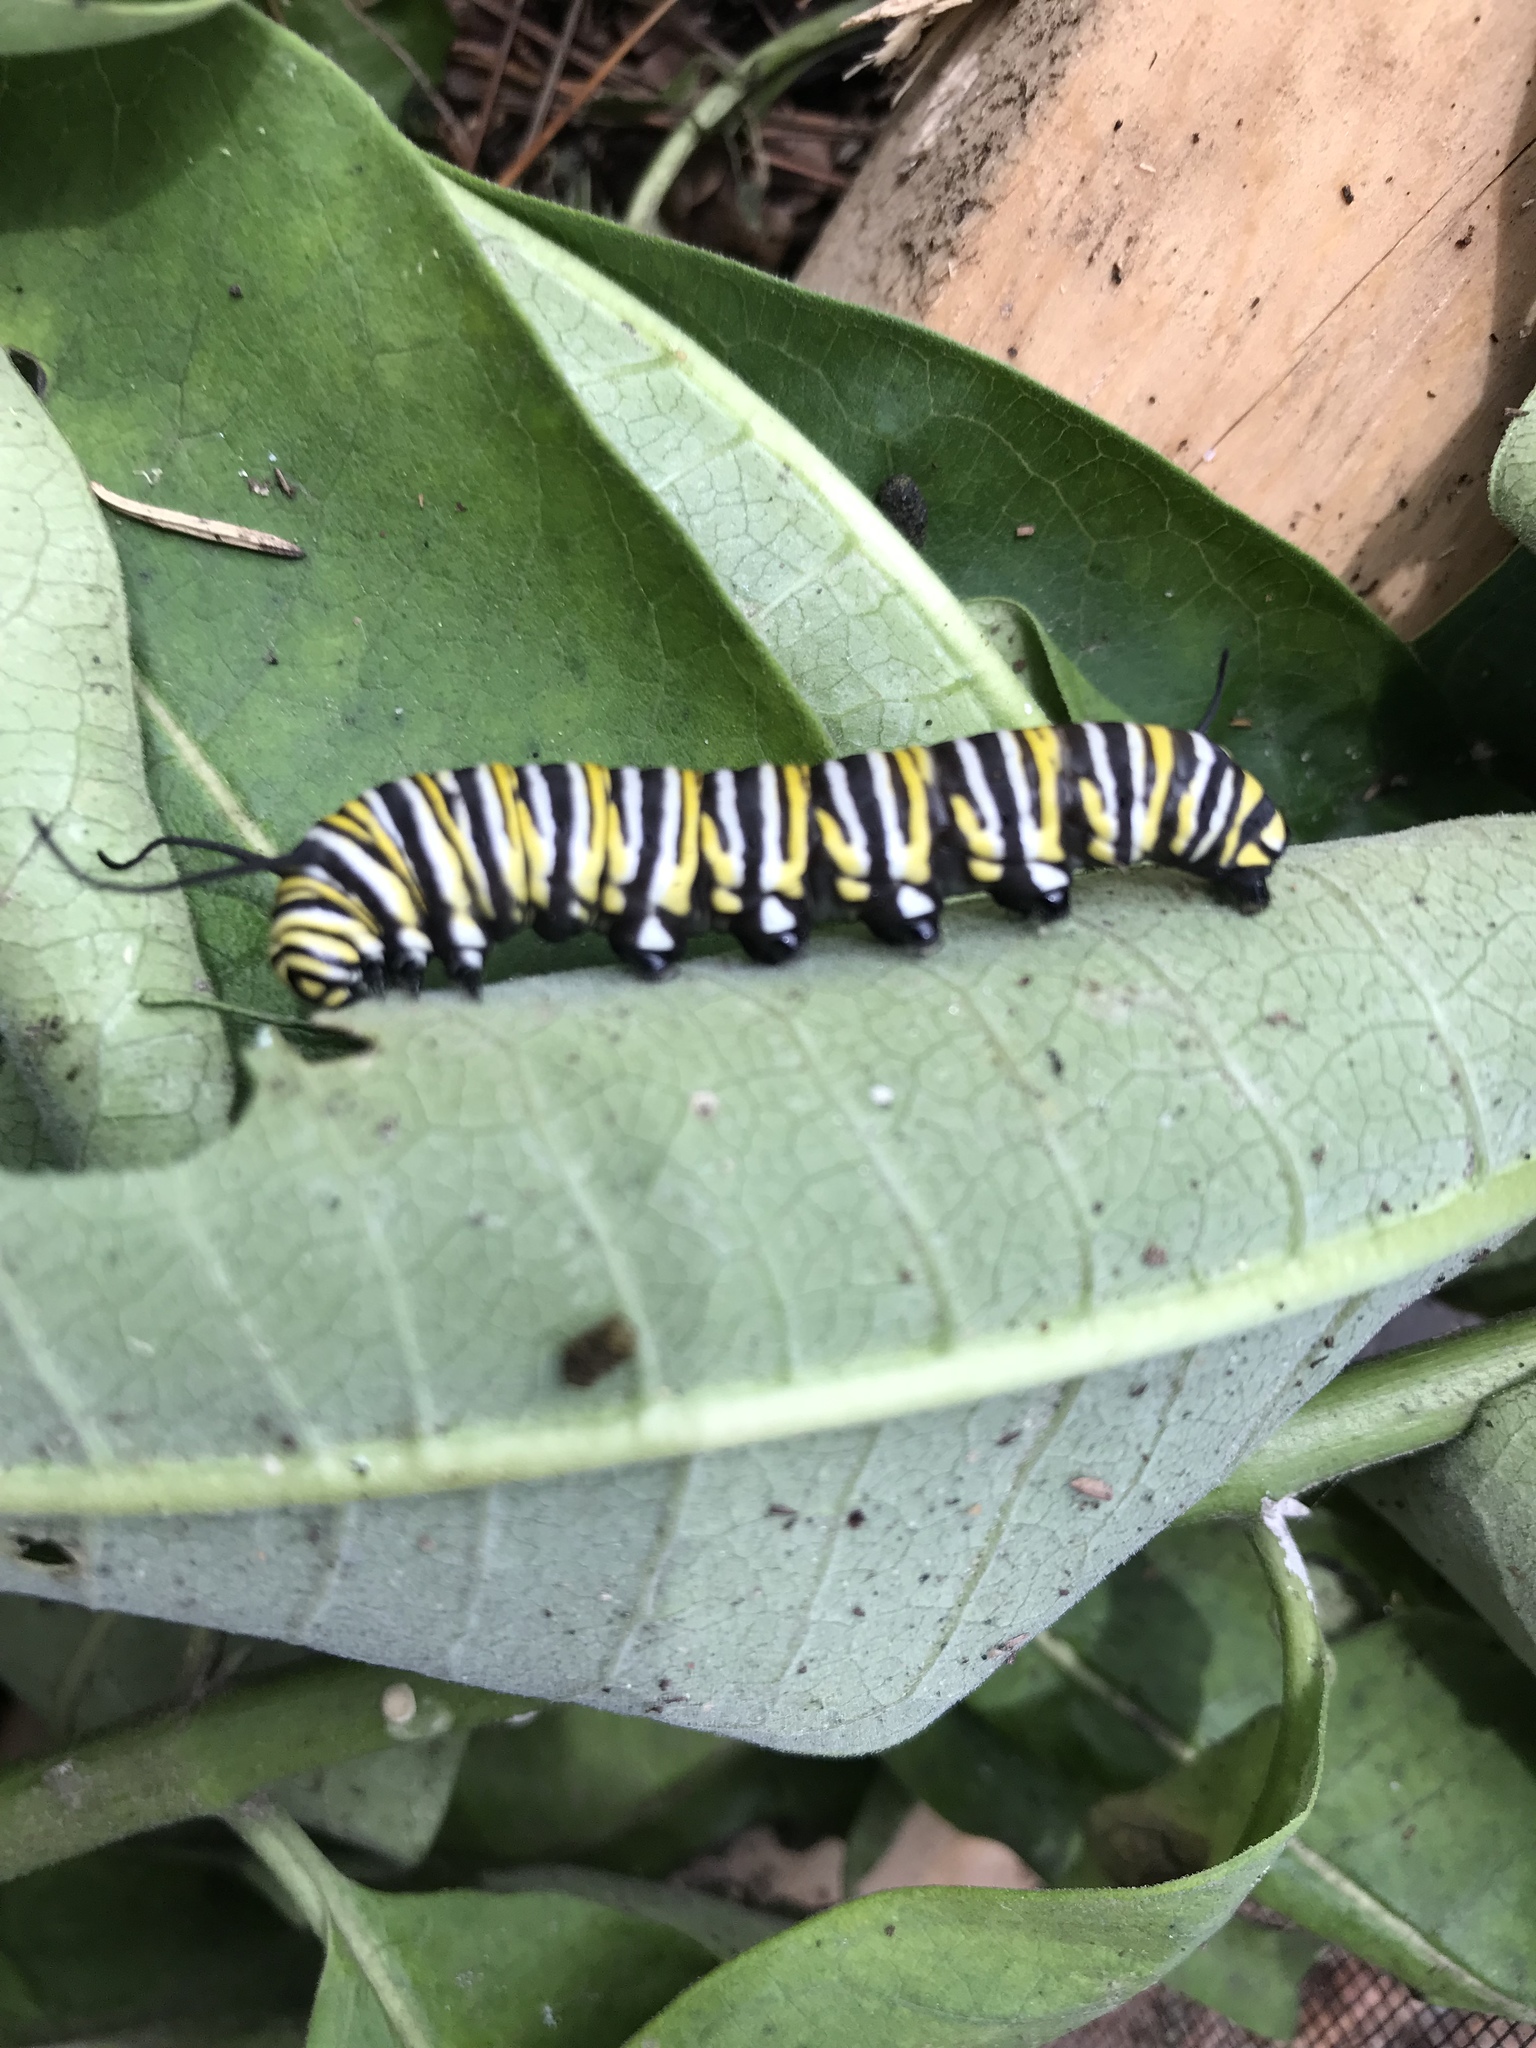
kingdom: Animalia
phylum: Arthropoda
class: Insecta
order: Lepidoptera
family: Nymphalidae
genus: Danaus
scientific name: Danaus plexippus
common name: Monarch
